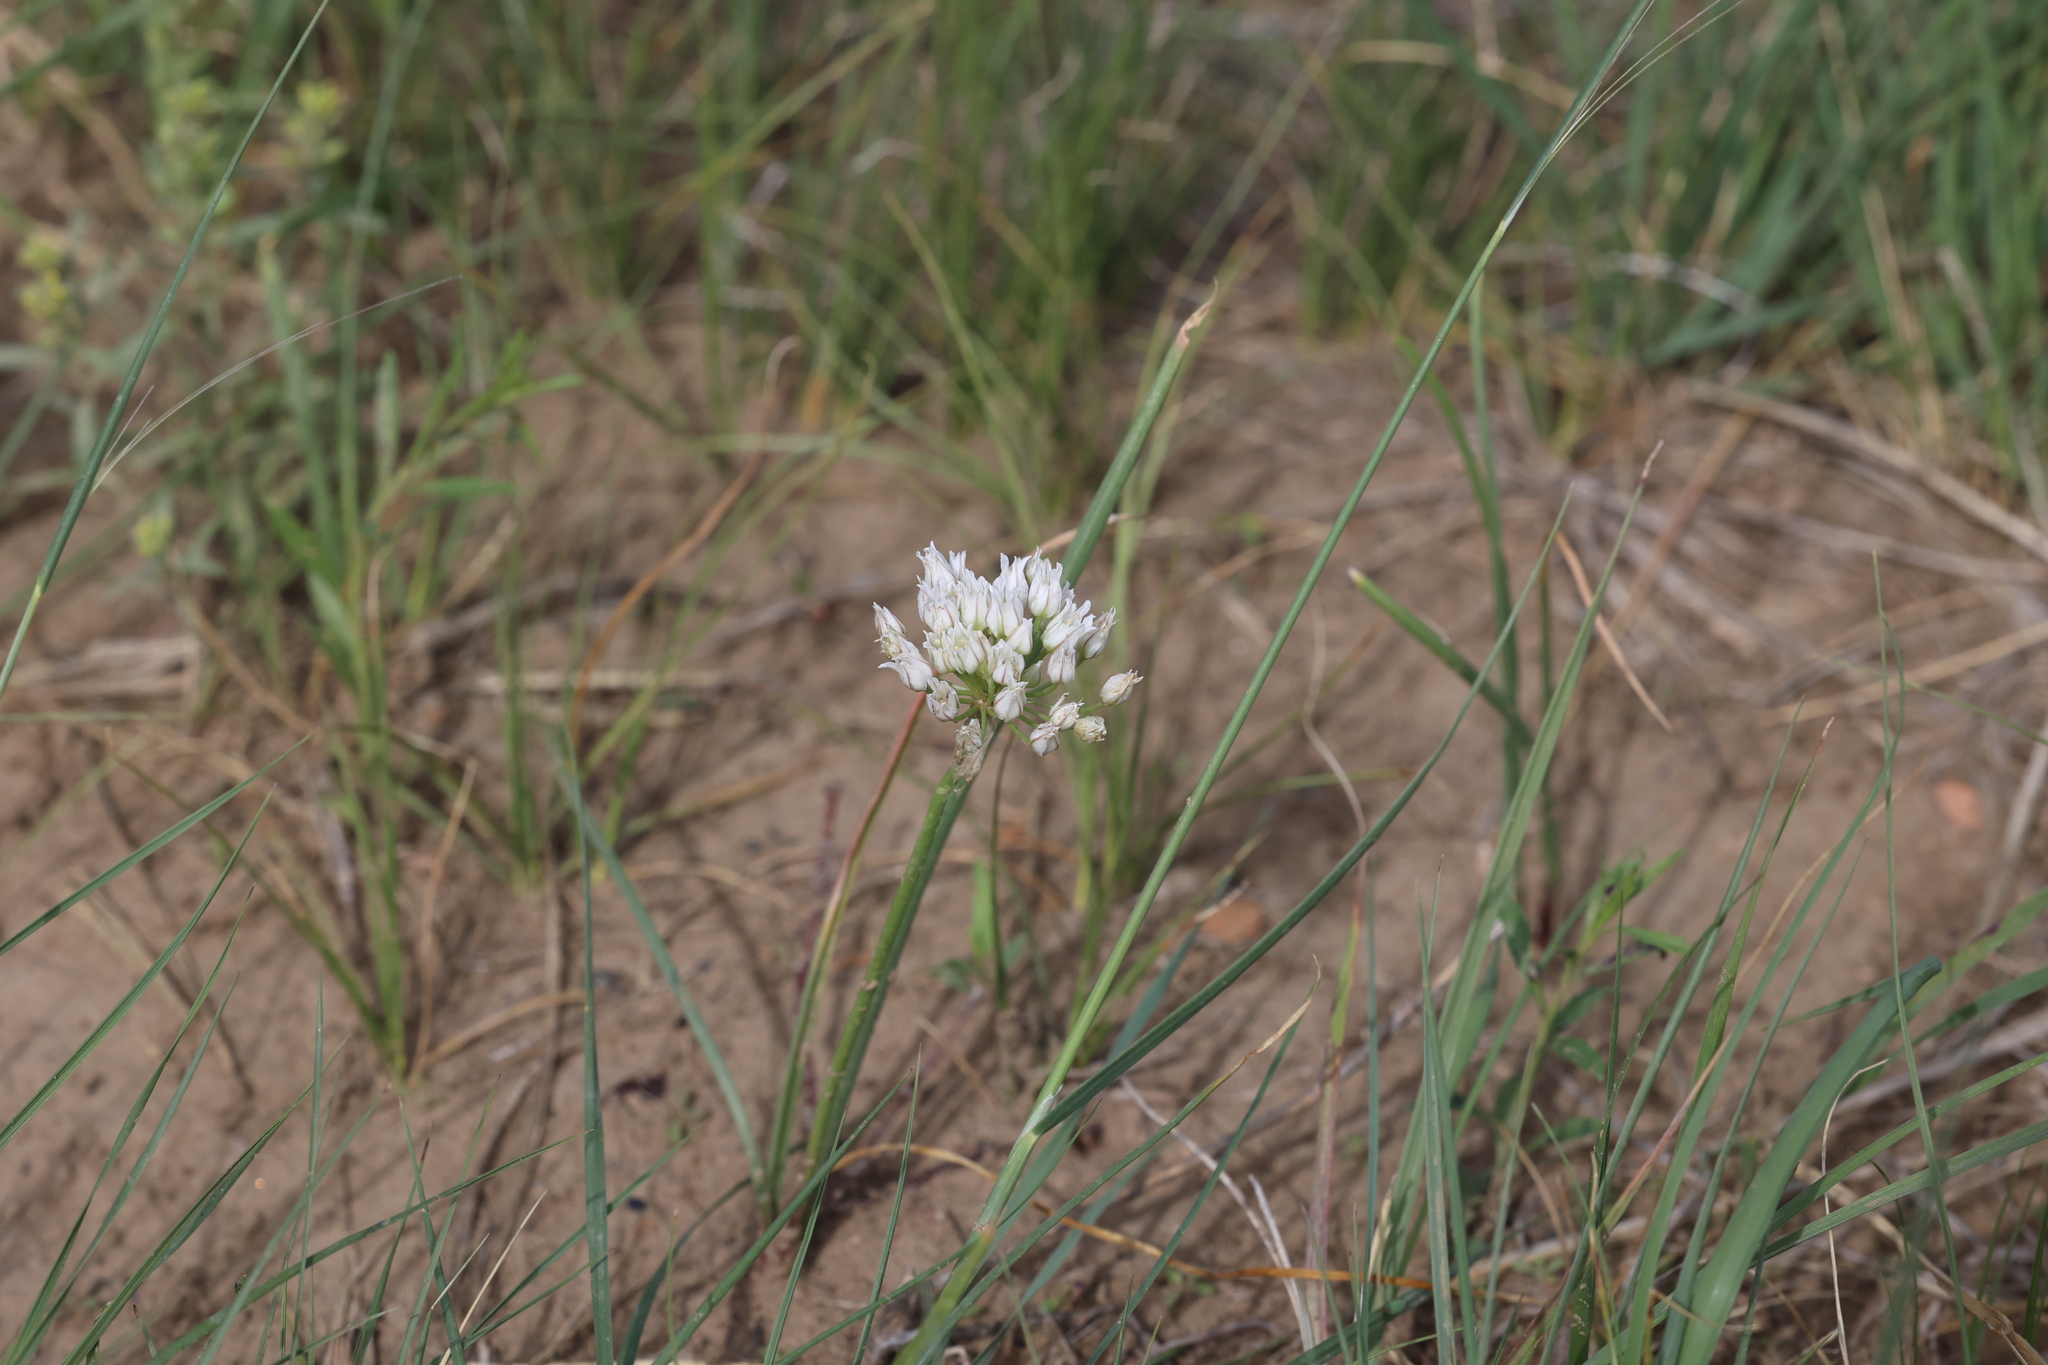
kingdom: Plantae
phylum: Tracheophyta
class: Liliopsida
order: Asparagales
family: Amaryllidaceae
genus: Allium
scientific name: Allium textile
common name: Prairie onion
